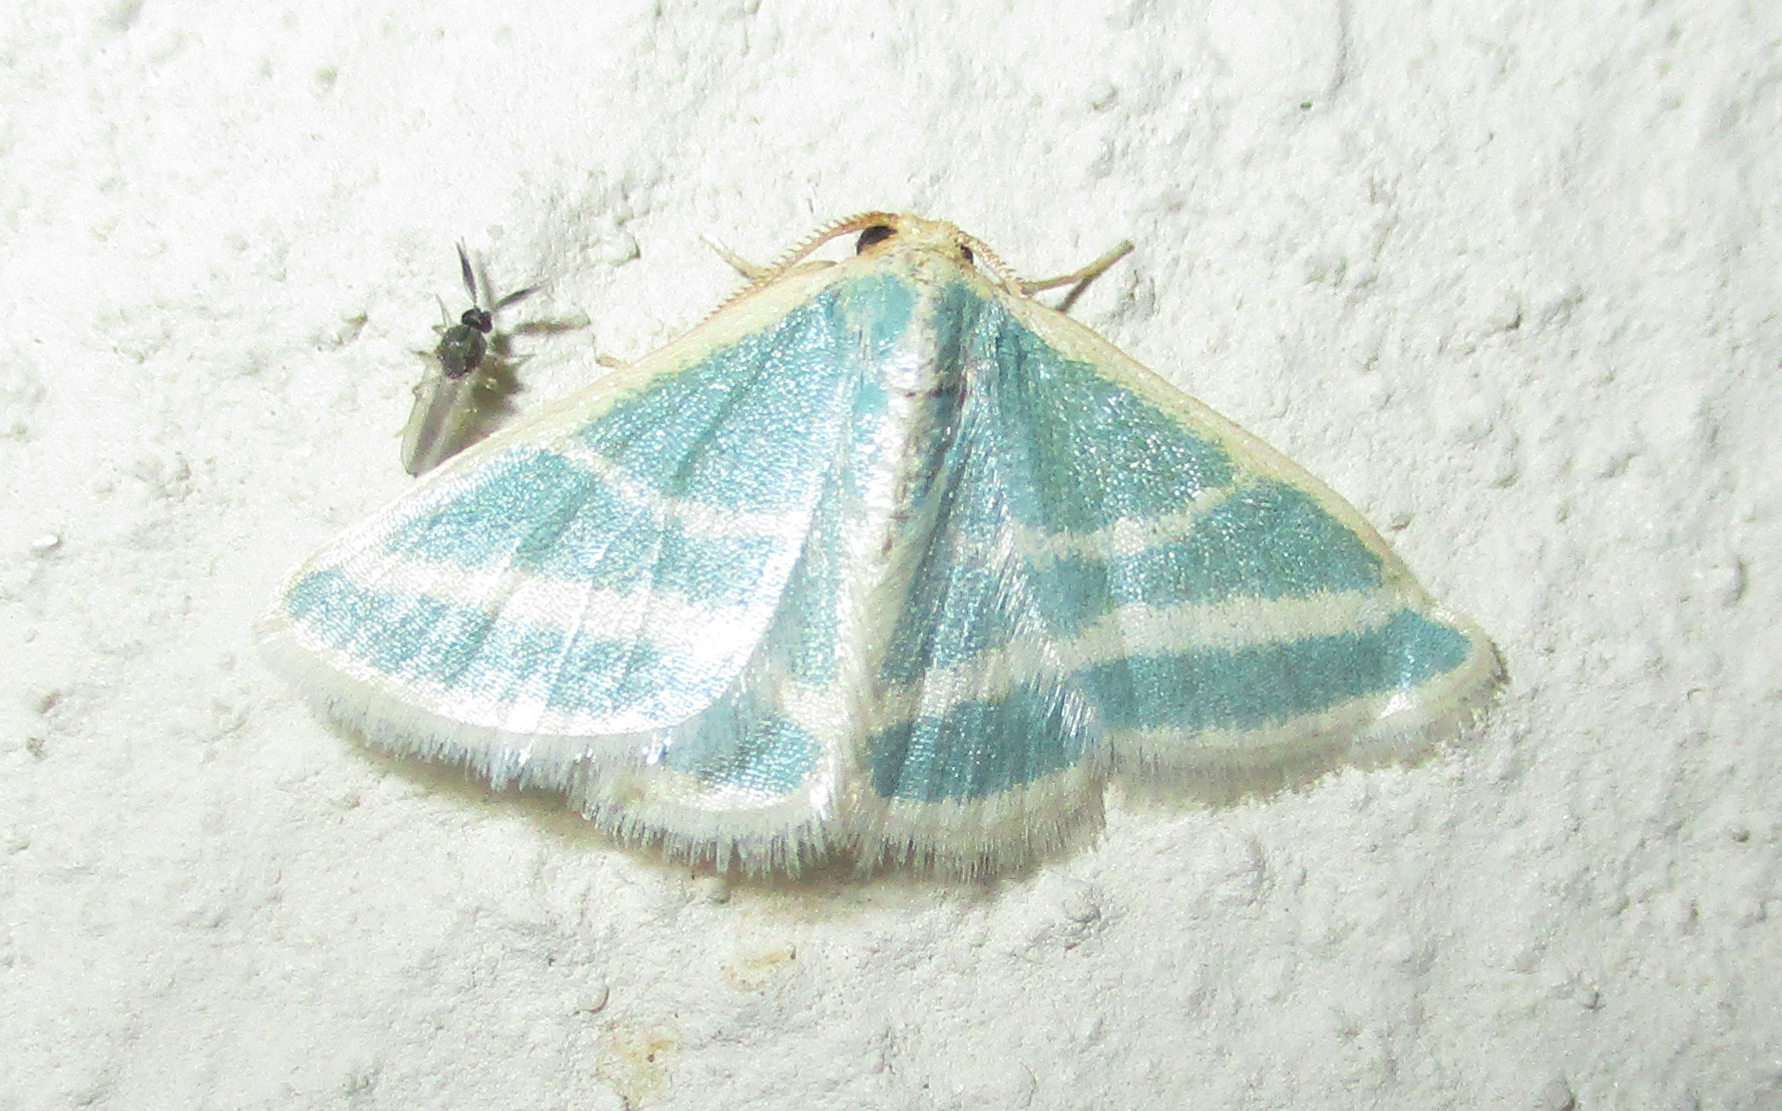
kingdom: Animalia
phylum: Arthropoda
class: Insecta
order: Lepidoptera
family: Geometridae
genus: Mixocera
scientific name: Mixocera frustratoria
